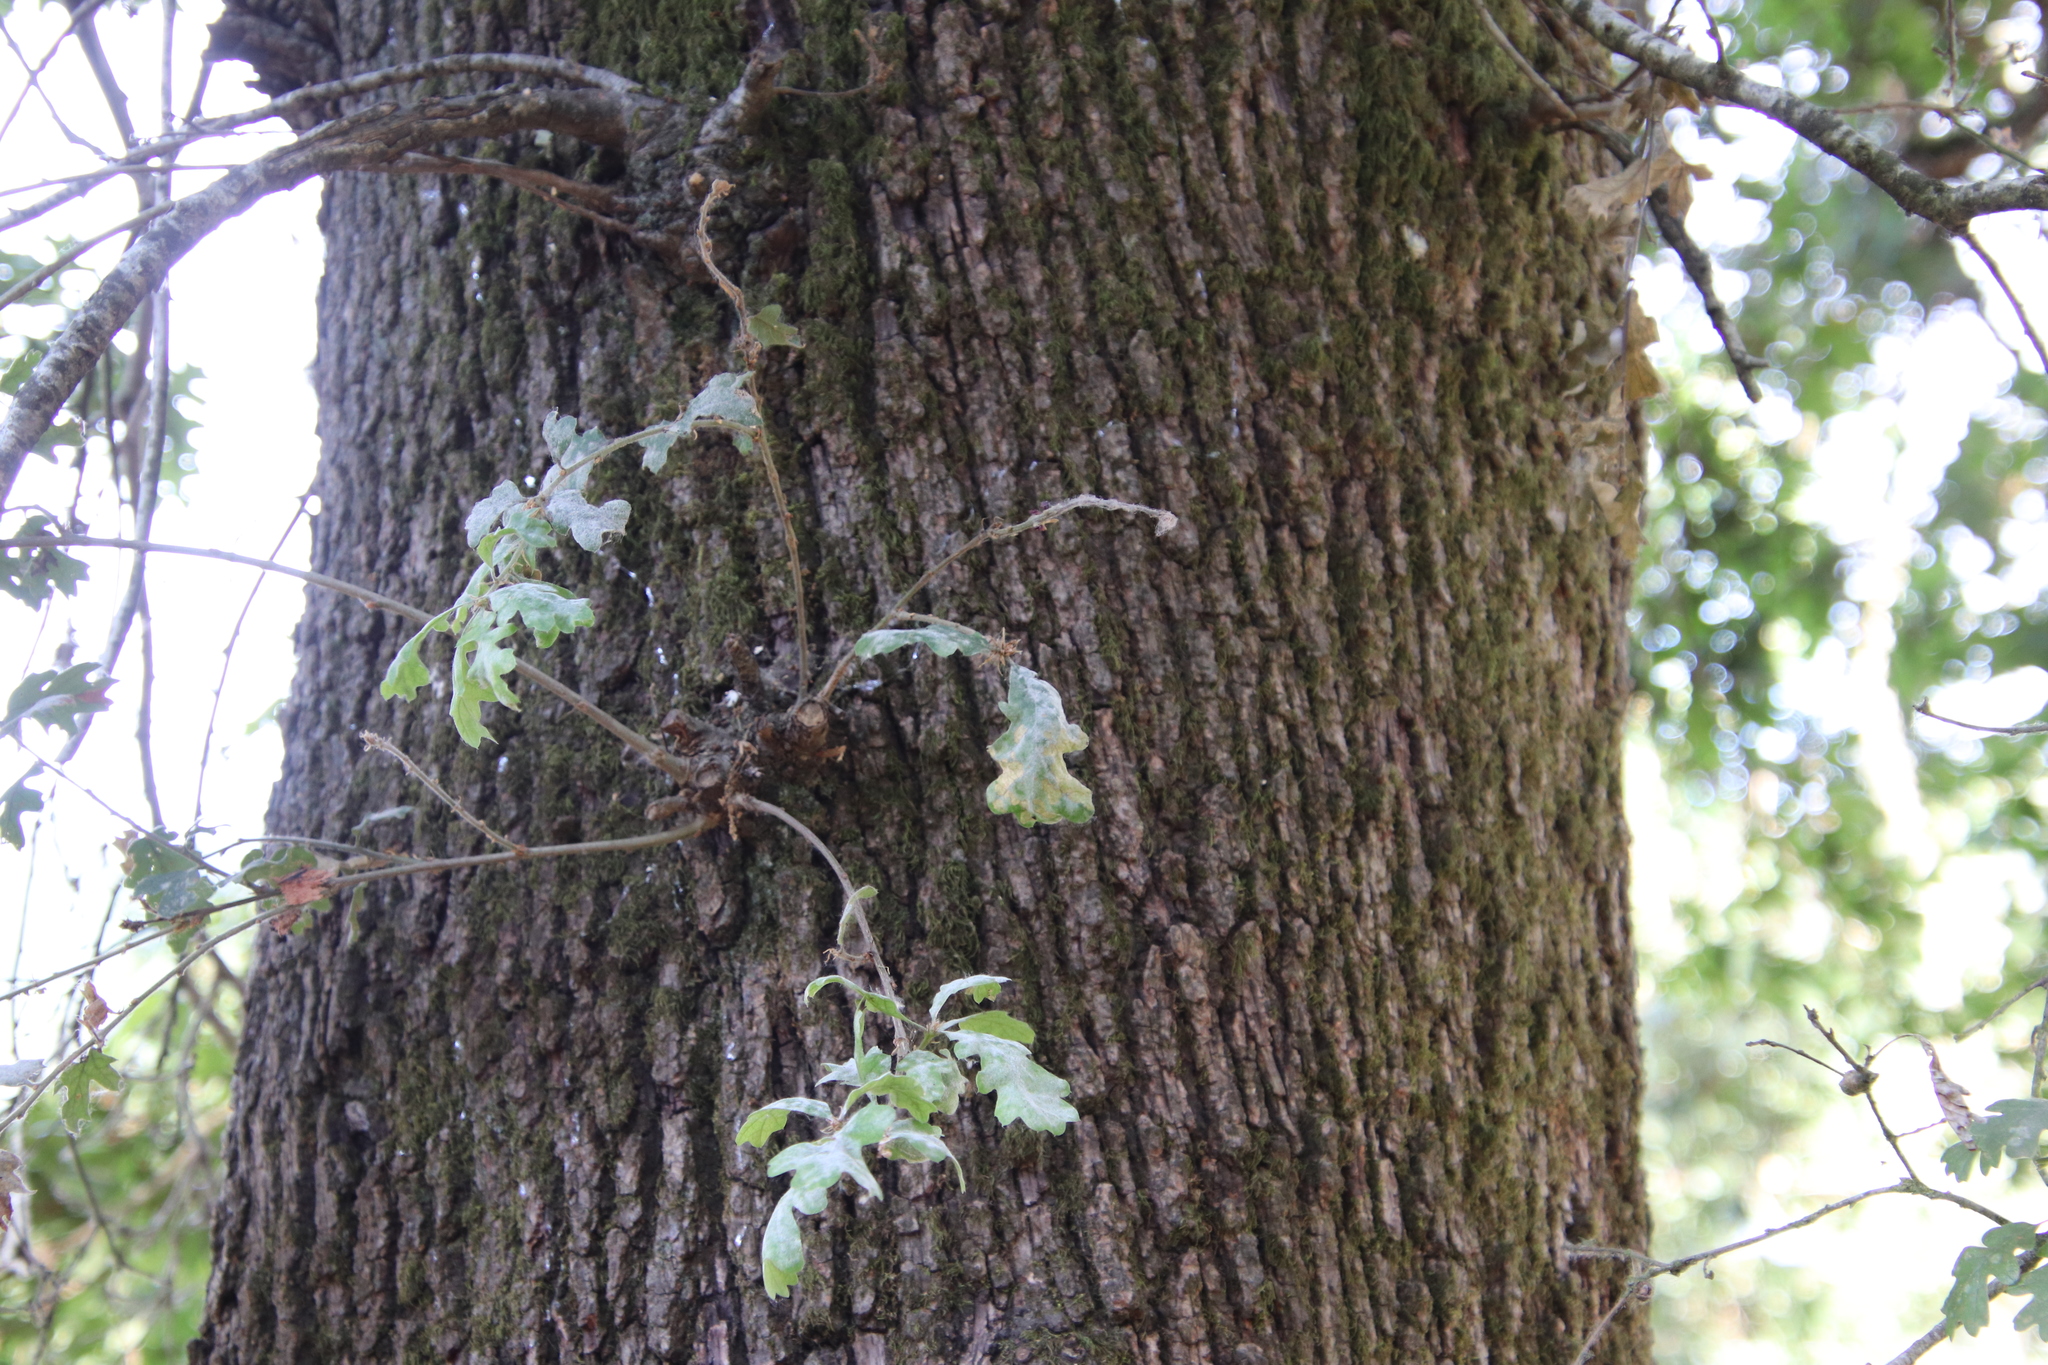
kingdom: Plantae
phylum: Tracheophyta
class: Magnoliopsida
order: Fagales
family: Fagaceae
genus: Quercus
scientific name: Quercus garryana
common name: Garry oak
